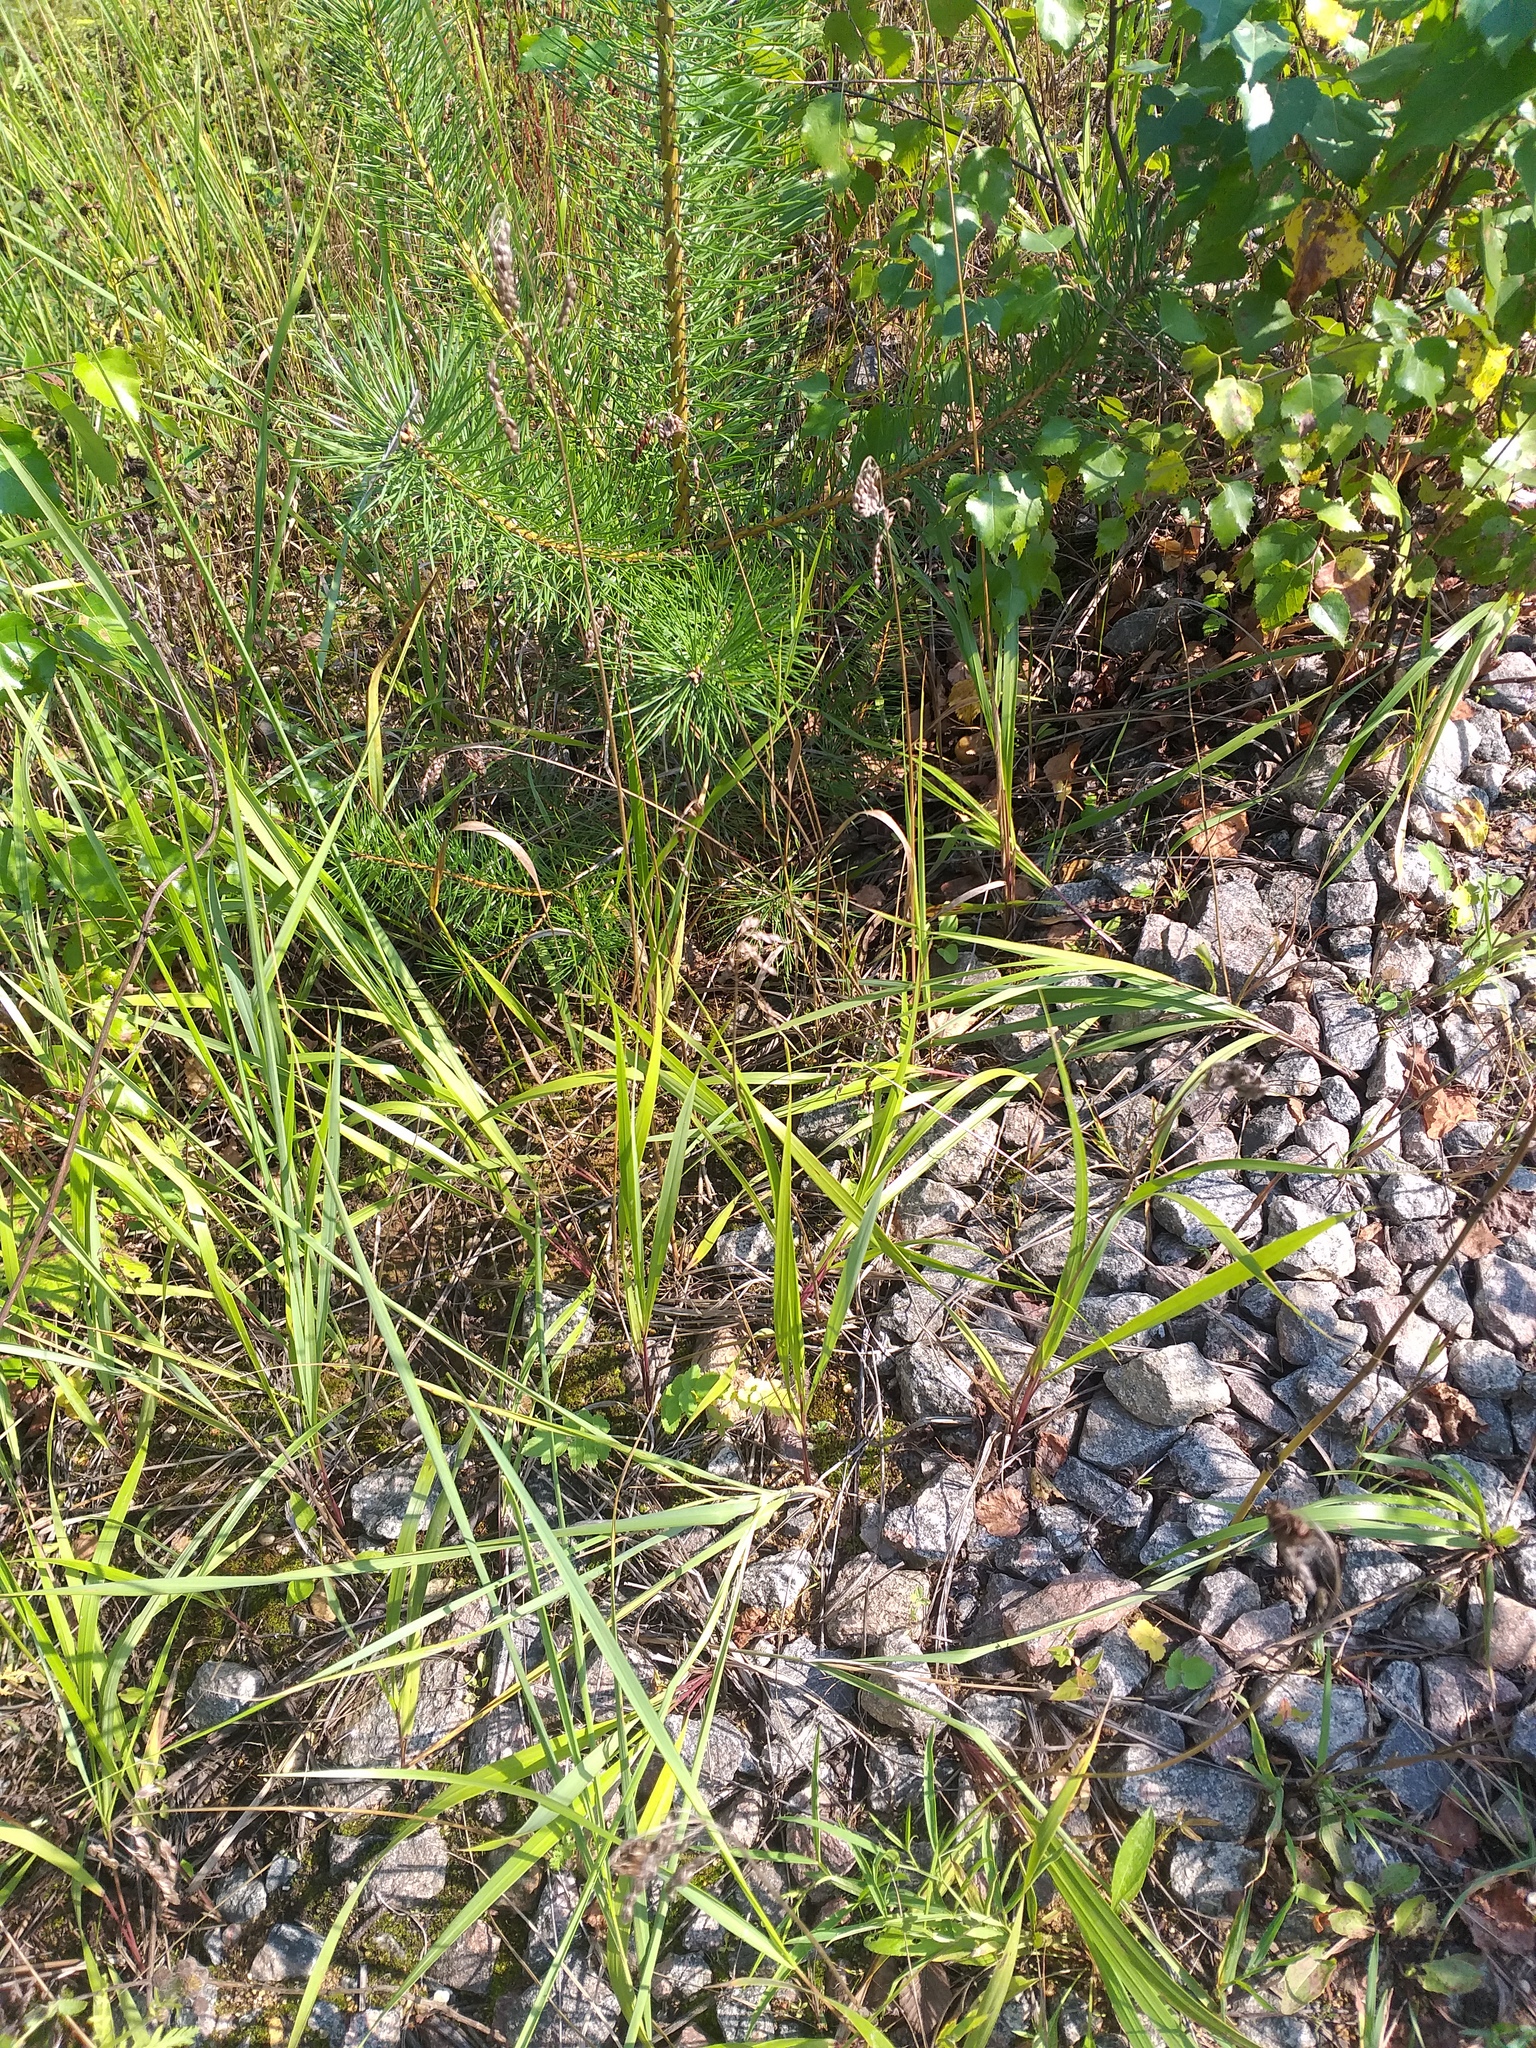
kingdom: Plantae
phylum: Tracheophyta
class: Liliopsida
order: Poales
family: Poaceae
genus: Anthoxanthum
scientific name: Anthoxanthum nitens
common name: Holy grass
